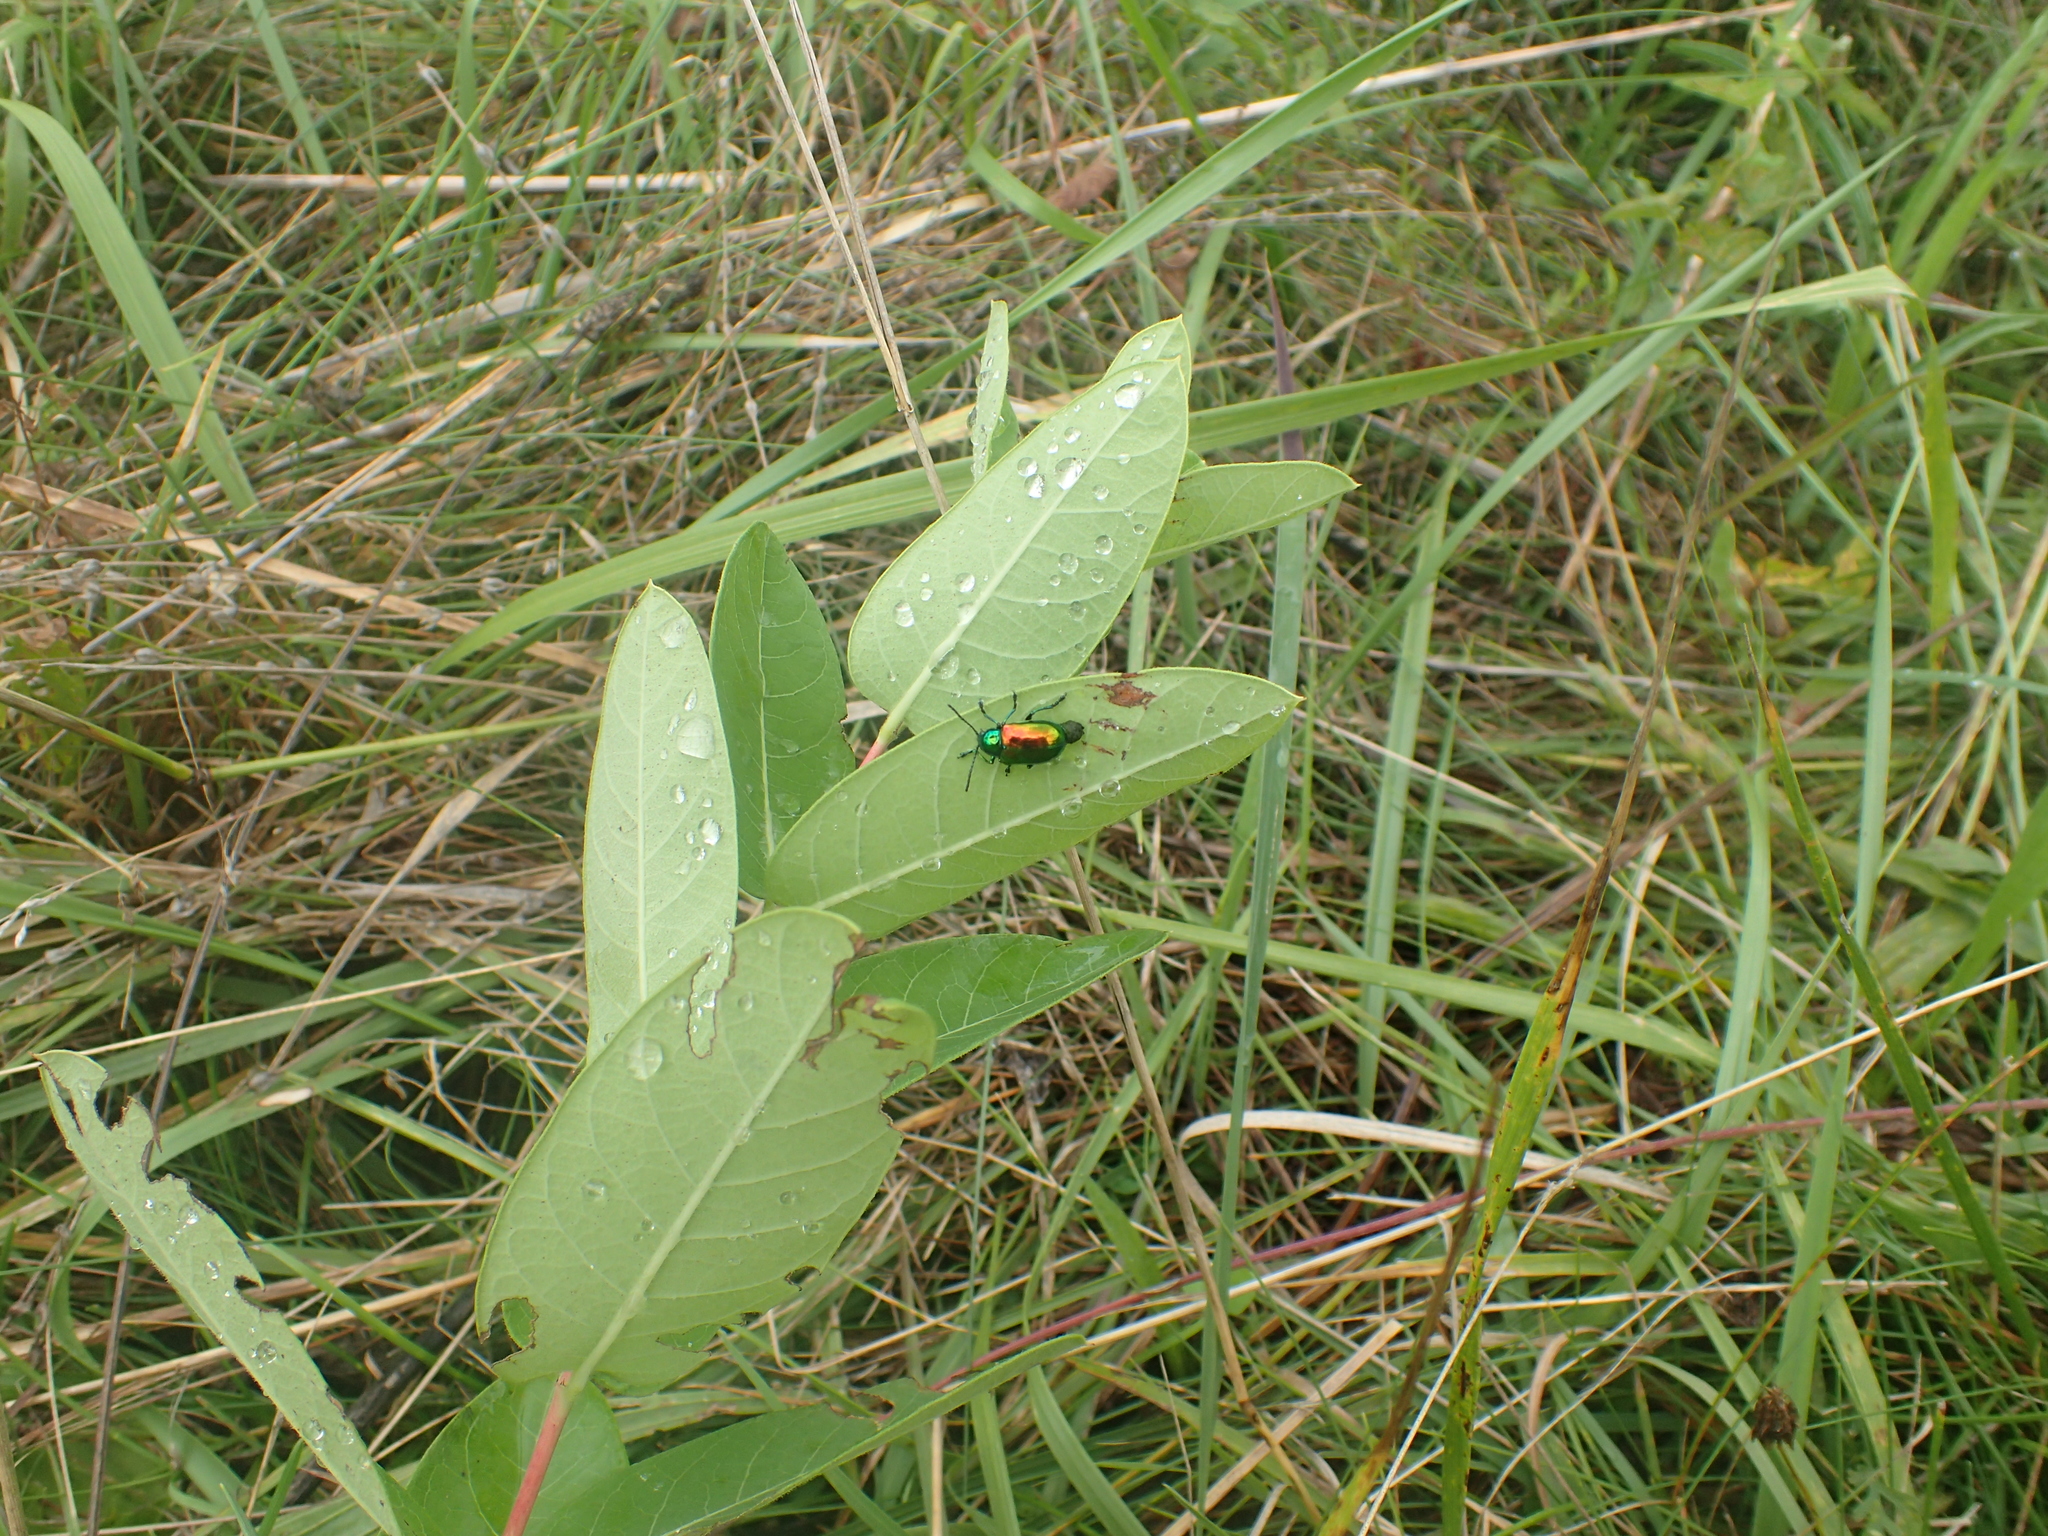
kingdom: Animalia
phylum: Arthropoda
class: Insecta
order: Coleoptera
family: Chrysomelidae
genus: Chrysochus
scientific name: Chrysochus auratus
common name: Dogbane leaf beetle
